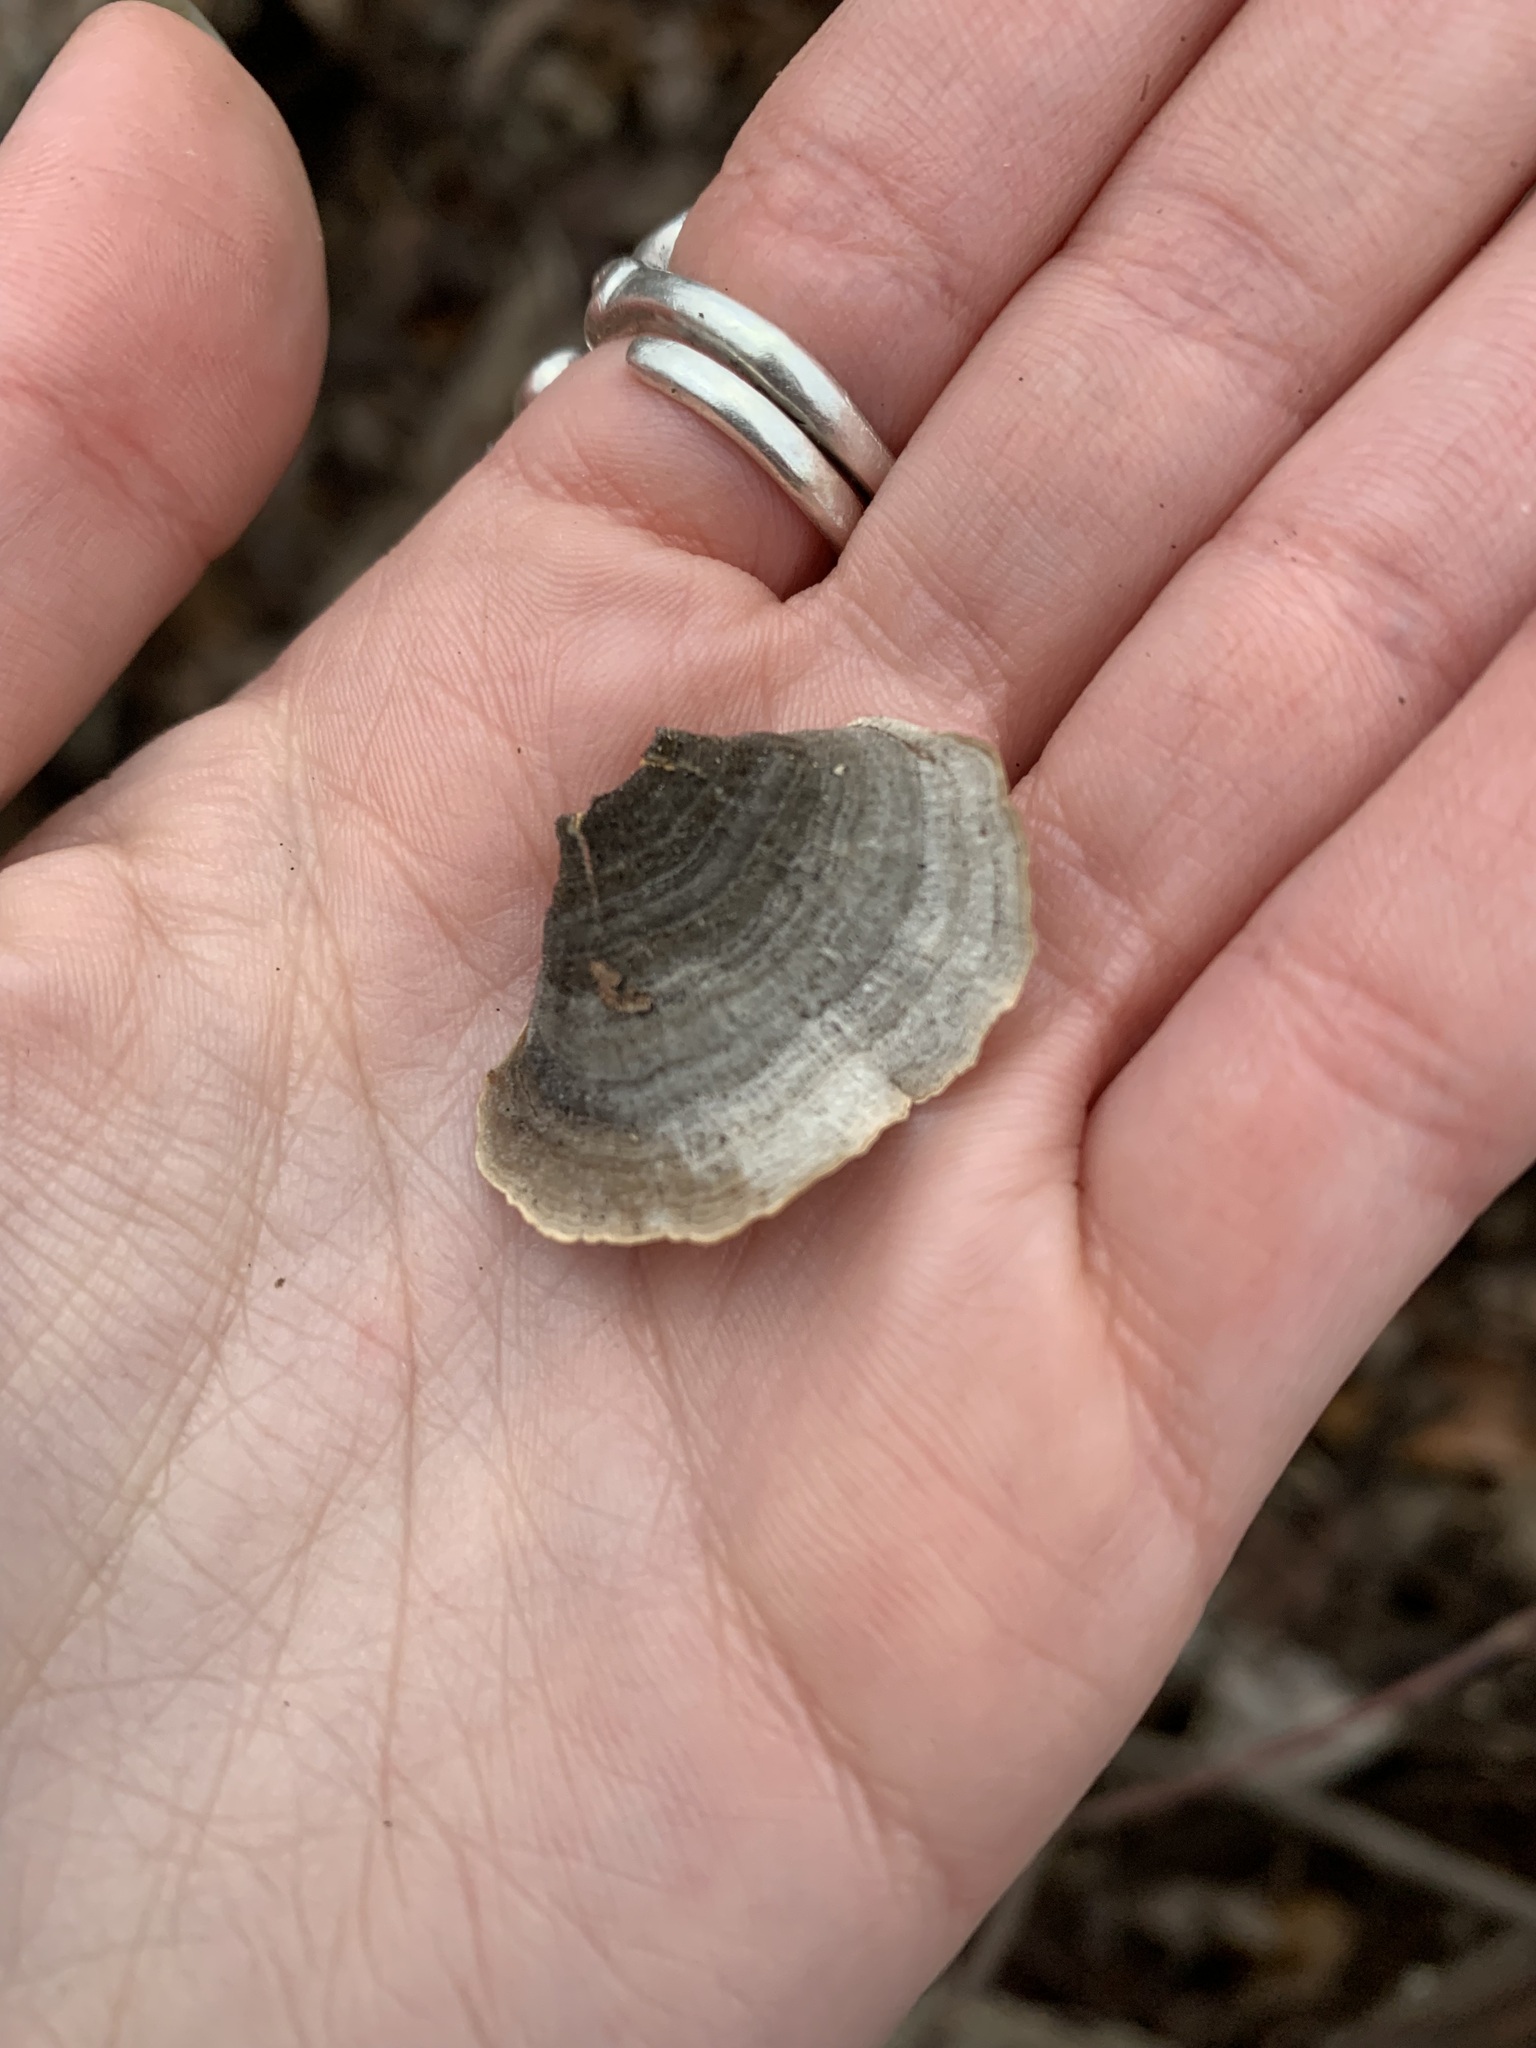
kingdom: Fungi
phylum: Basidiomycota
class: Agaricomycetes
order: Russulales
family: Stereaceae
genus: Stereum
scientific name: Stereum ostrea
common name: False turkeytail
